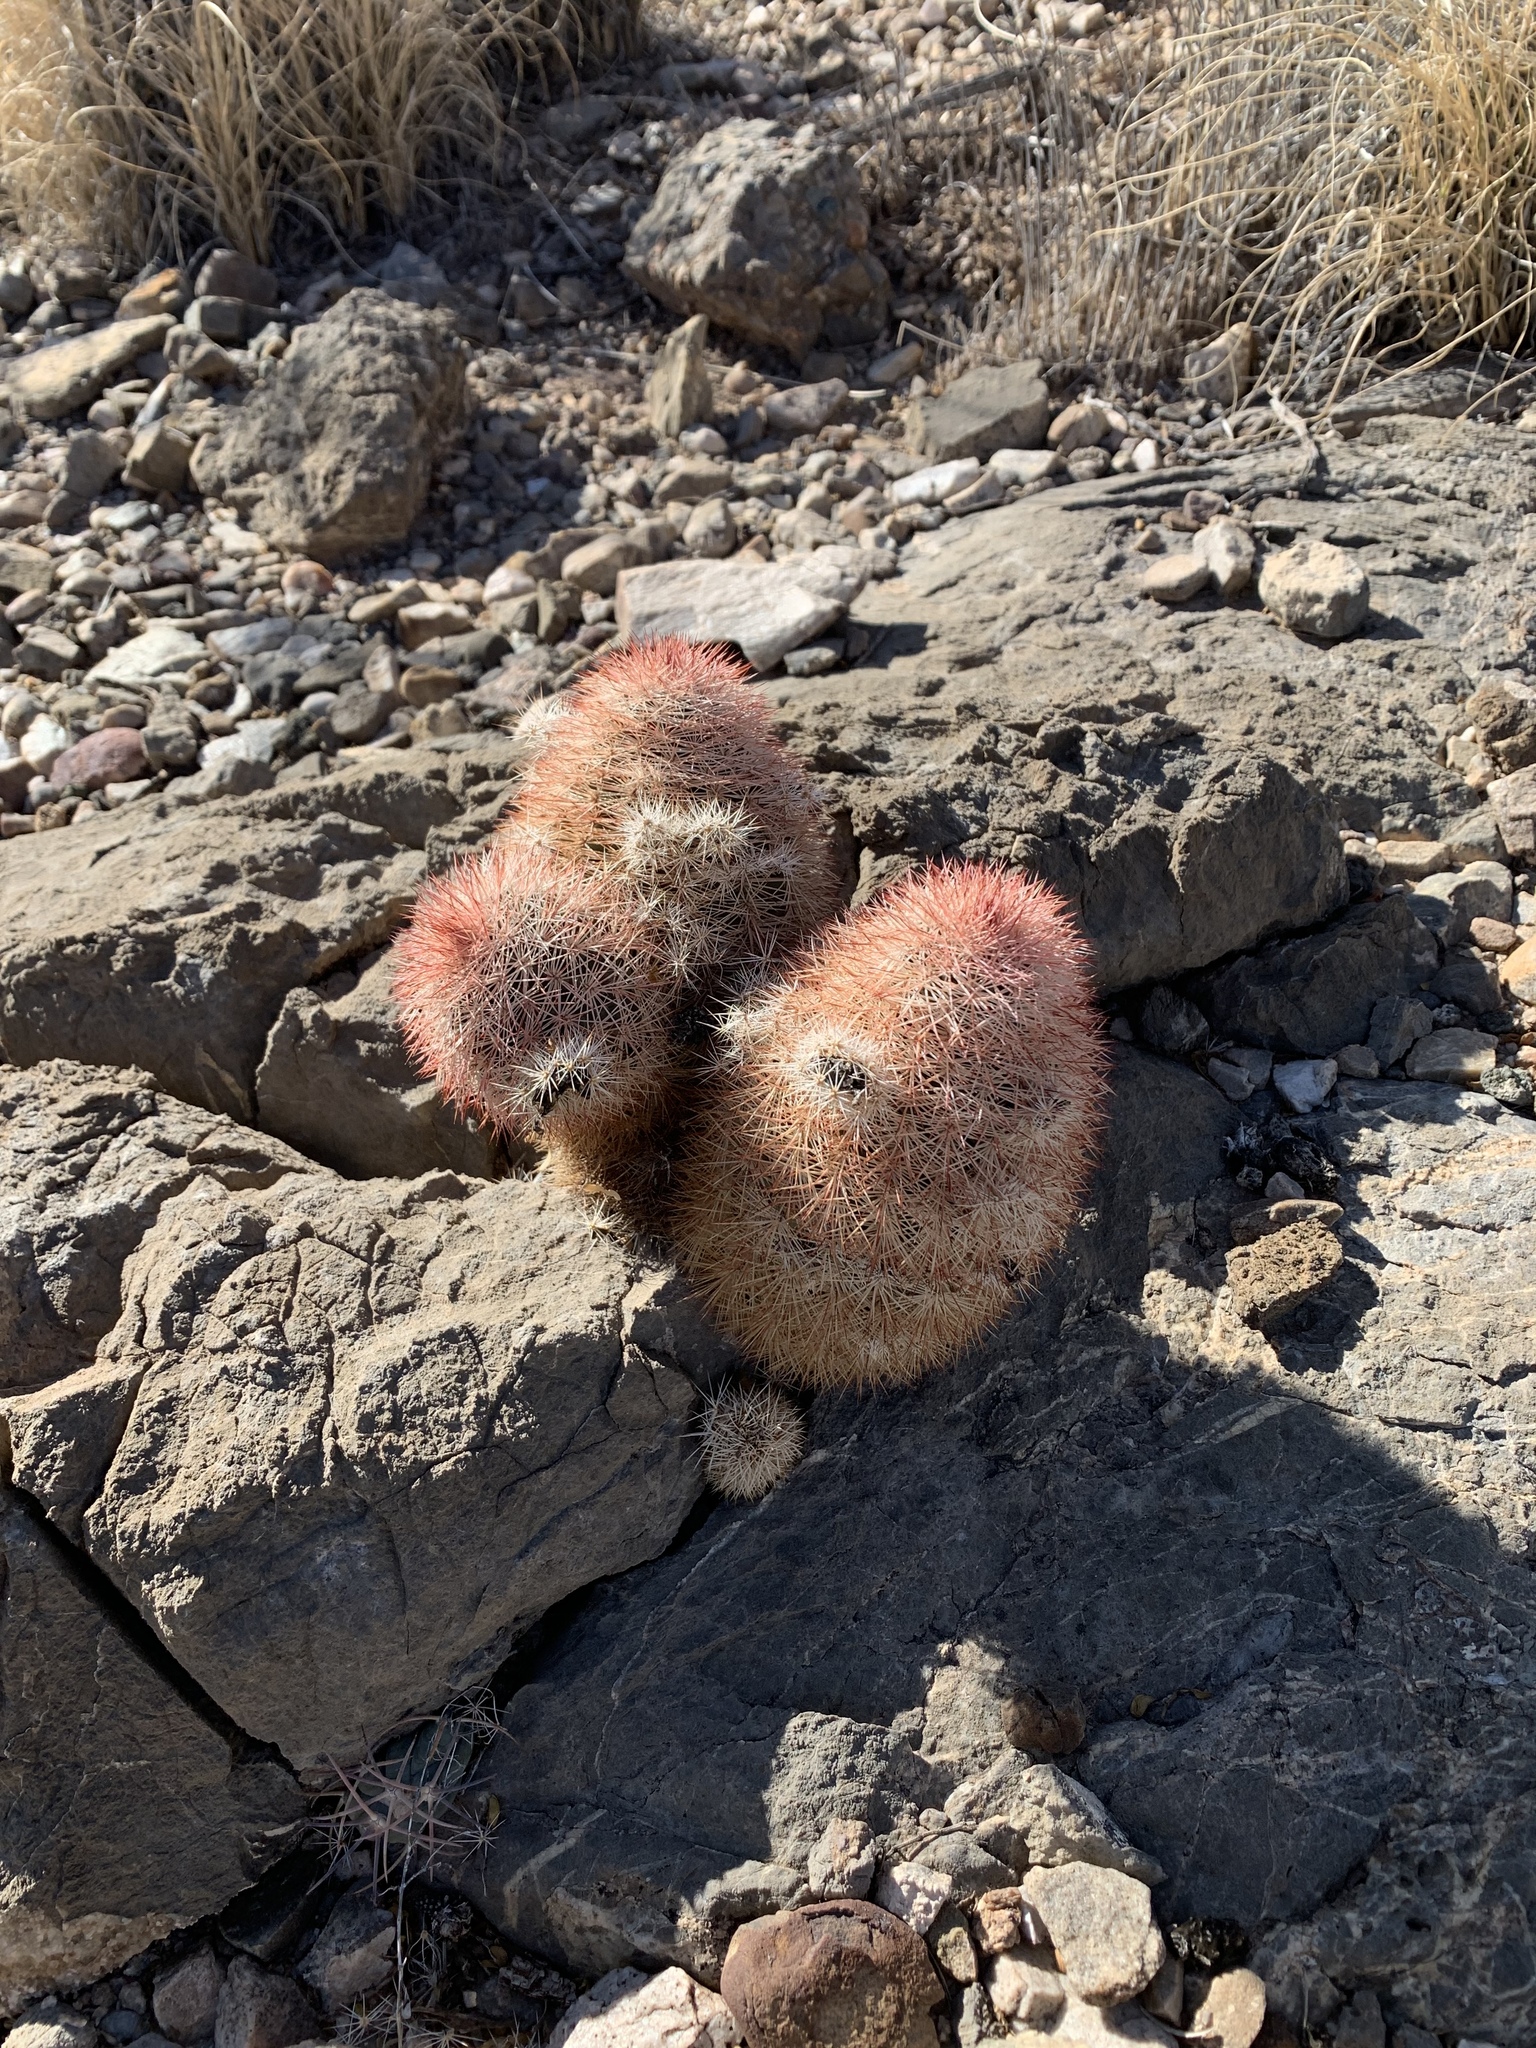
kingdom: Plantae
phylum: Tracheophyta
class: Magnoliopsida
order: Caryophyllales
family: Cactaceae
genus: Echinocereus
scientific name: Echinocereus dasyacanthus
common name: Spiny hedgehog cactus
